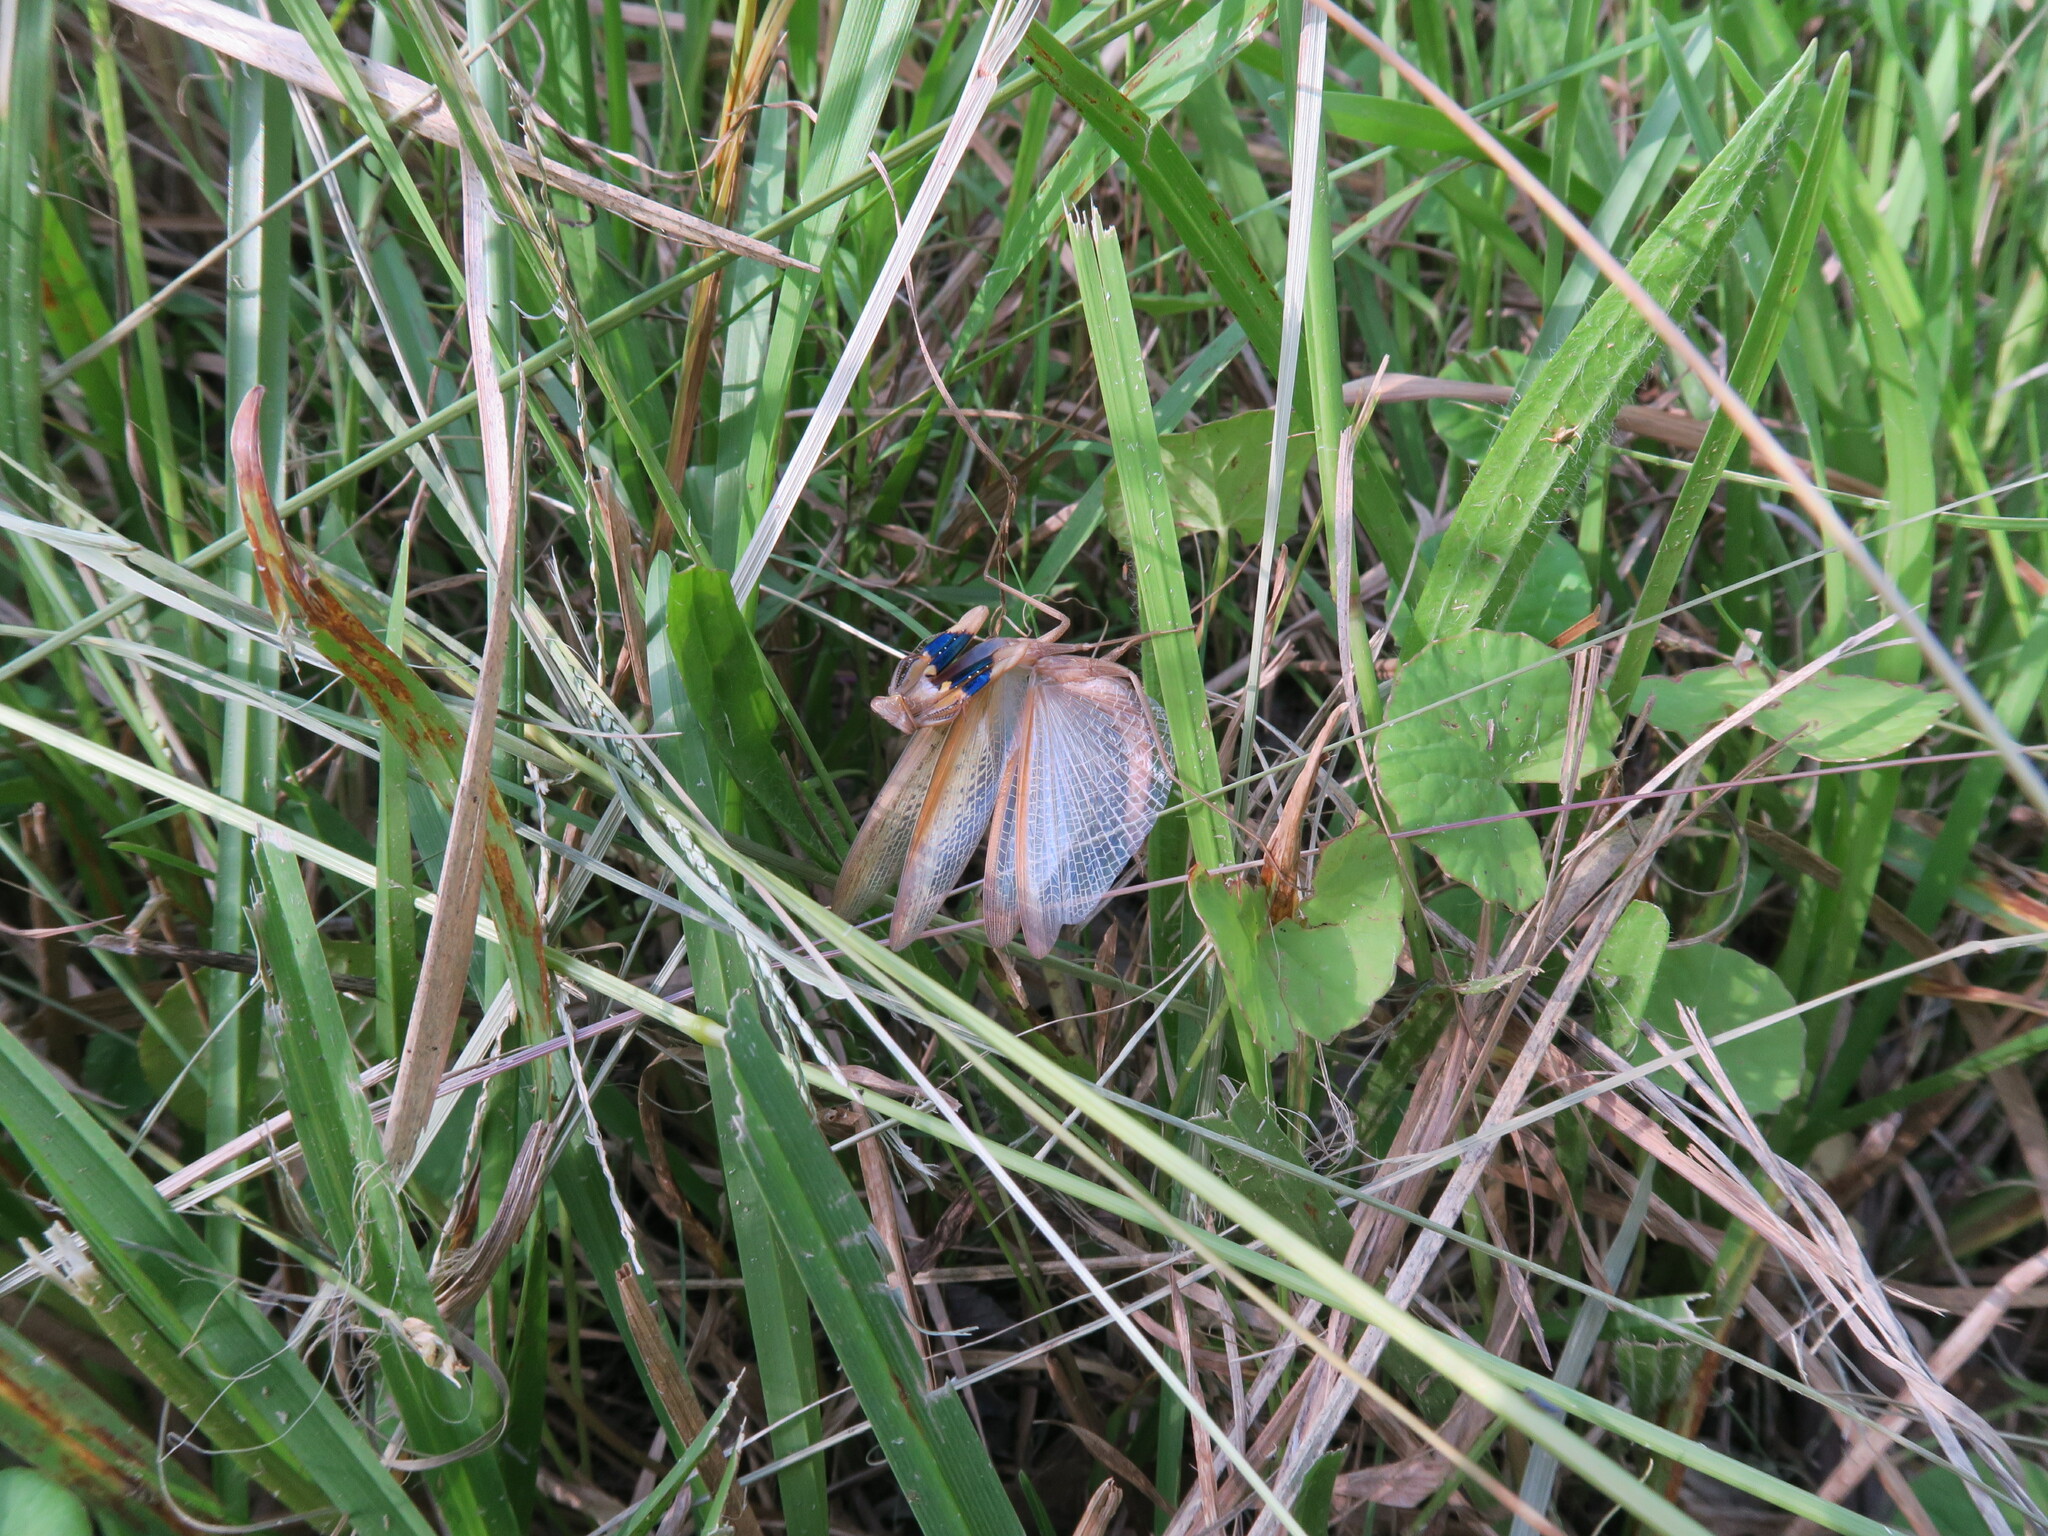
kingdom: Animalia
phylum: Arthropoda
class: Insecta
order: Mantodea
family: Mantidae
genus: Statilia
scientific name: Statilia apicalis
